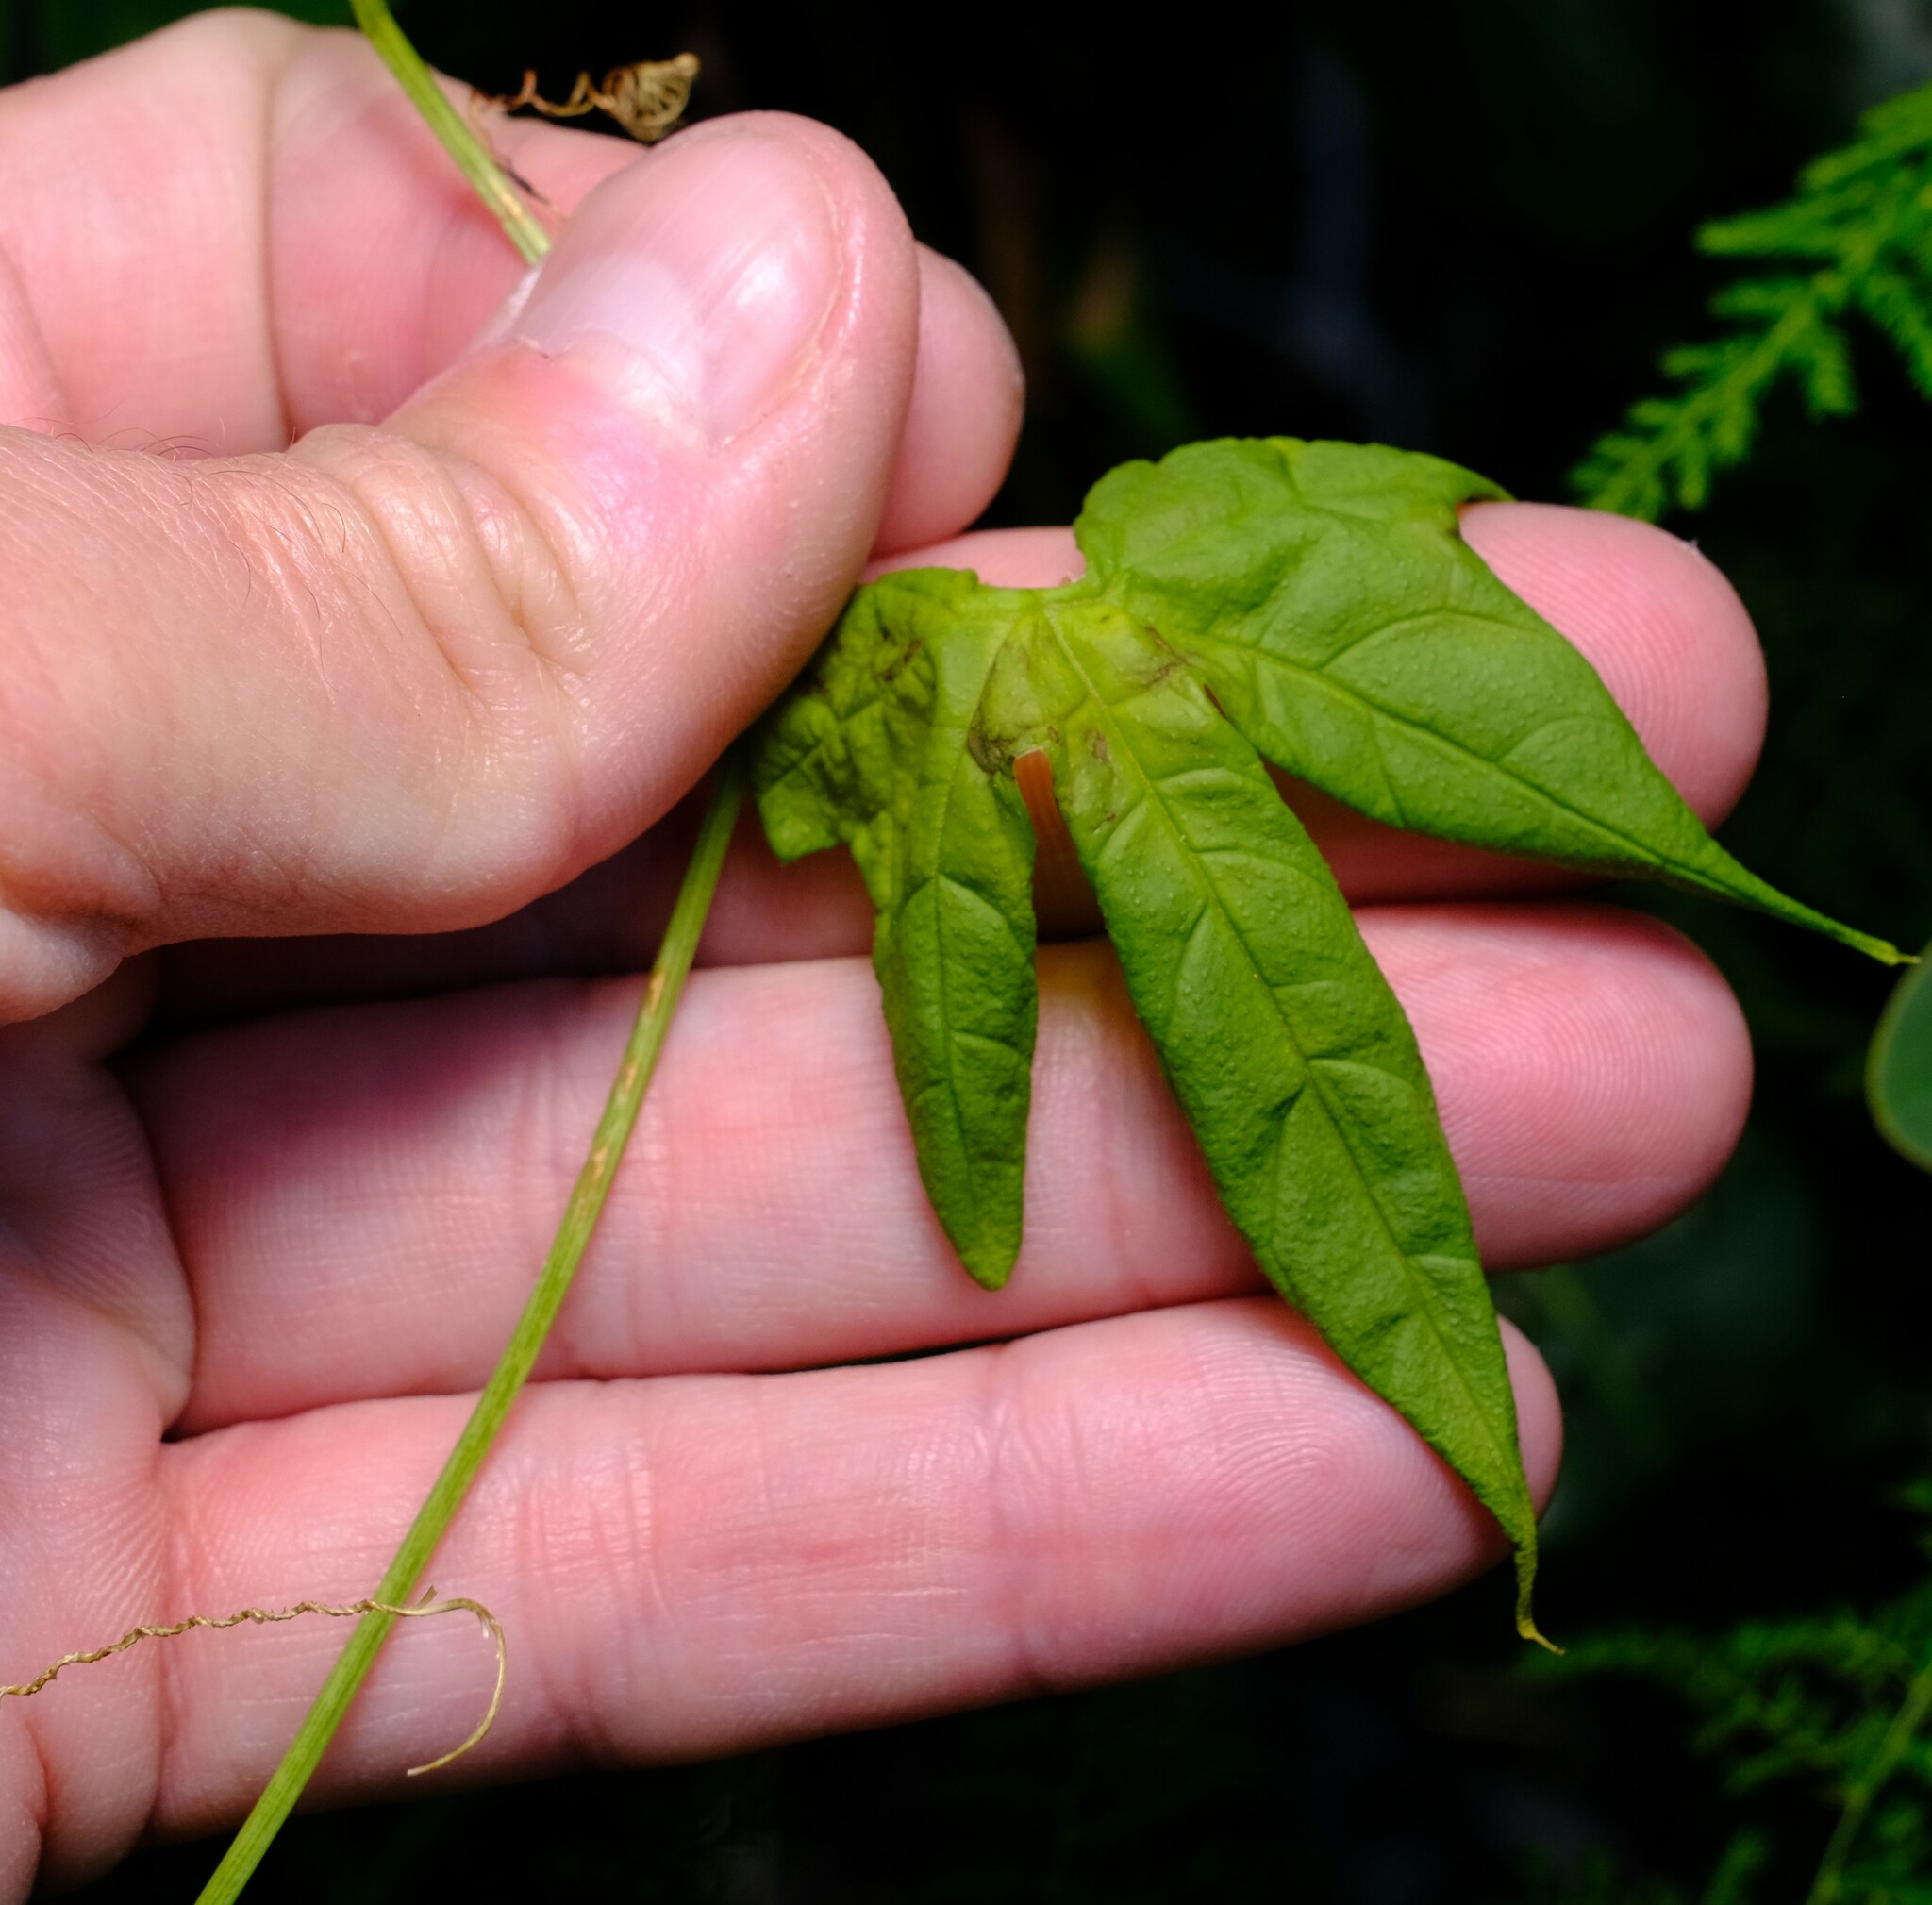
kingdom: Plantae
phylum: Tracheophyta
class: Magnoliopsida
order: Cucurbitales
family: Cucurbitaceae
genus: Diplocyclos
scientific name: Diplocyclos palmatus
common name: Striped-cucumber
